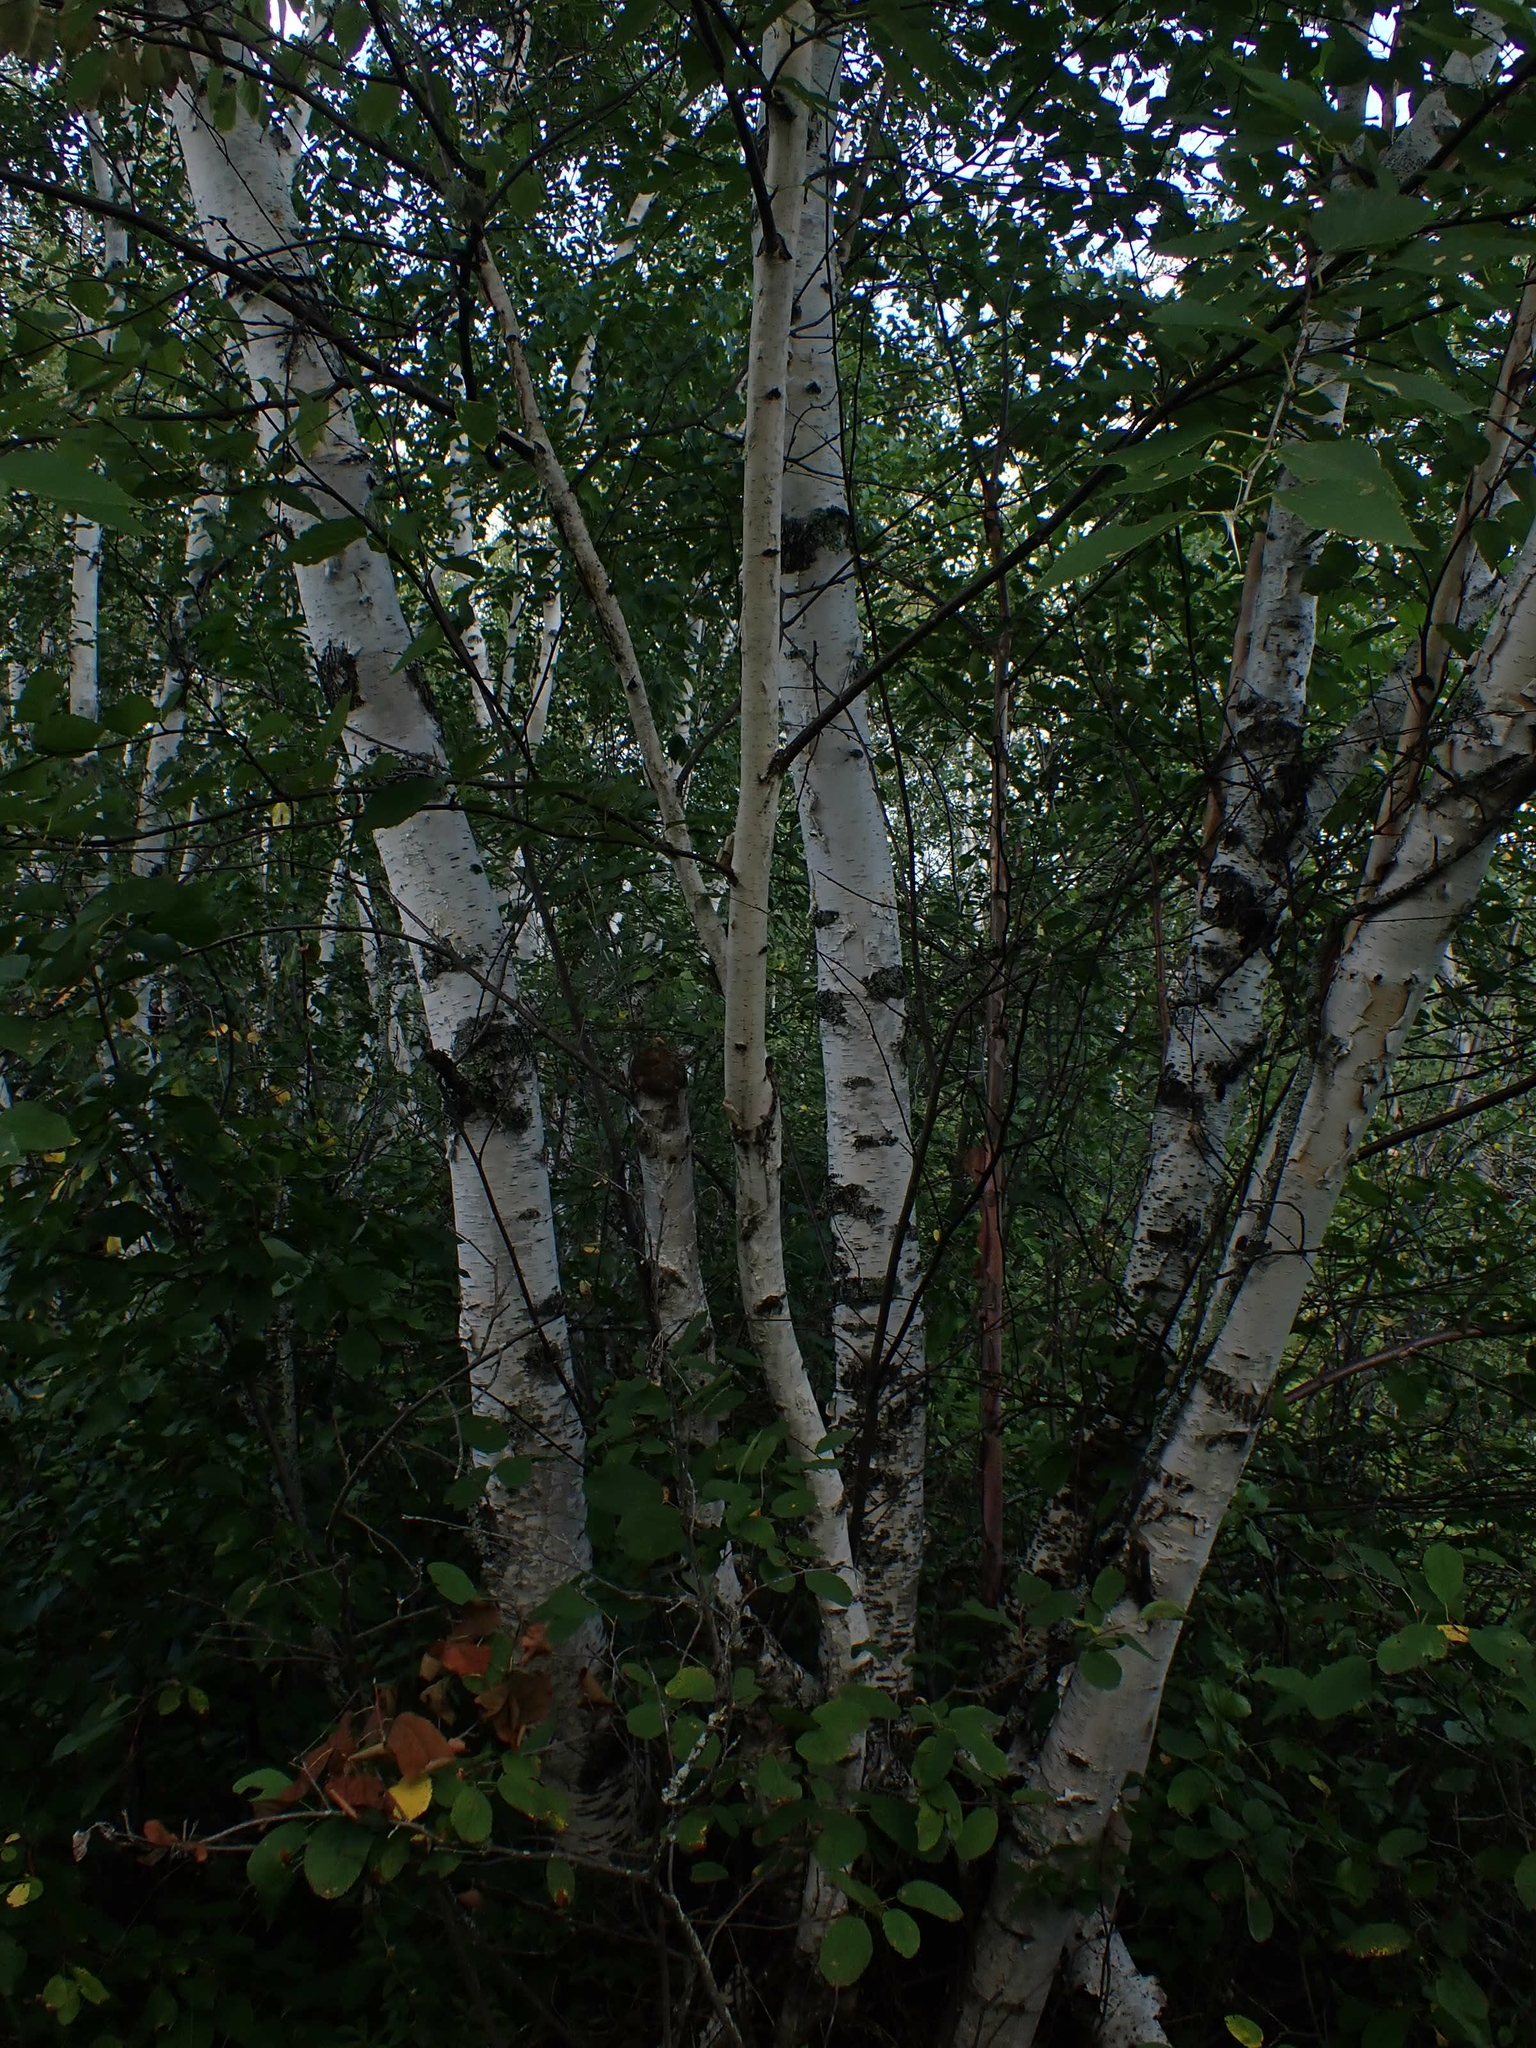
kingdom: Plantae
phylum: Tracheophyta
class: Magnoliopsida
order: Fagales
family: Betulaceae
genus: Betula
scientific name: Betula papyrifera
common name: Paper birch
